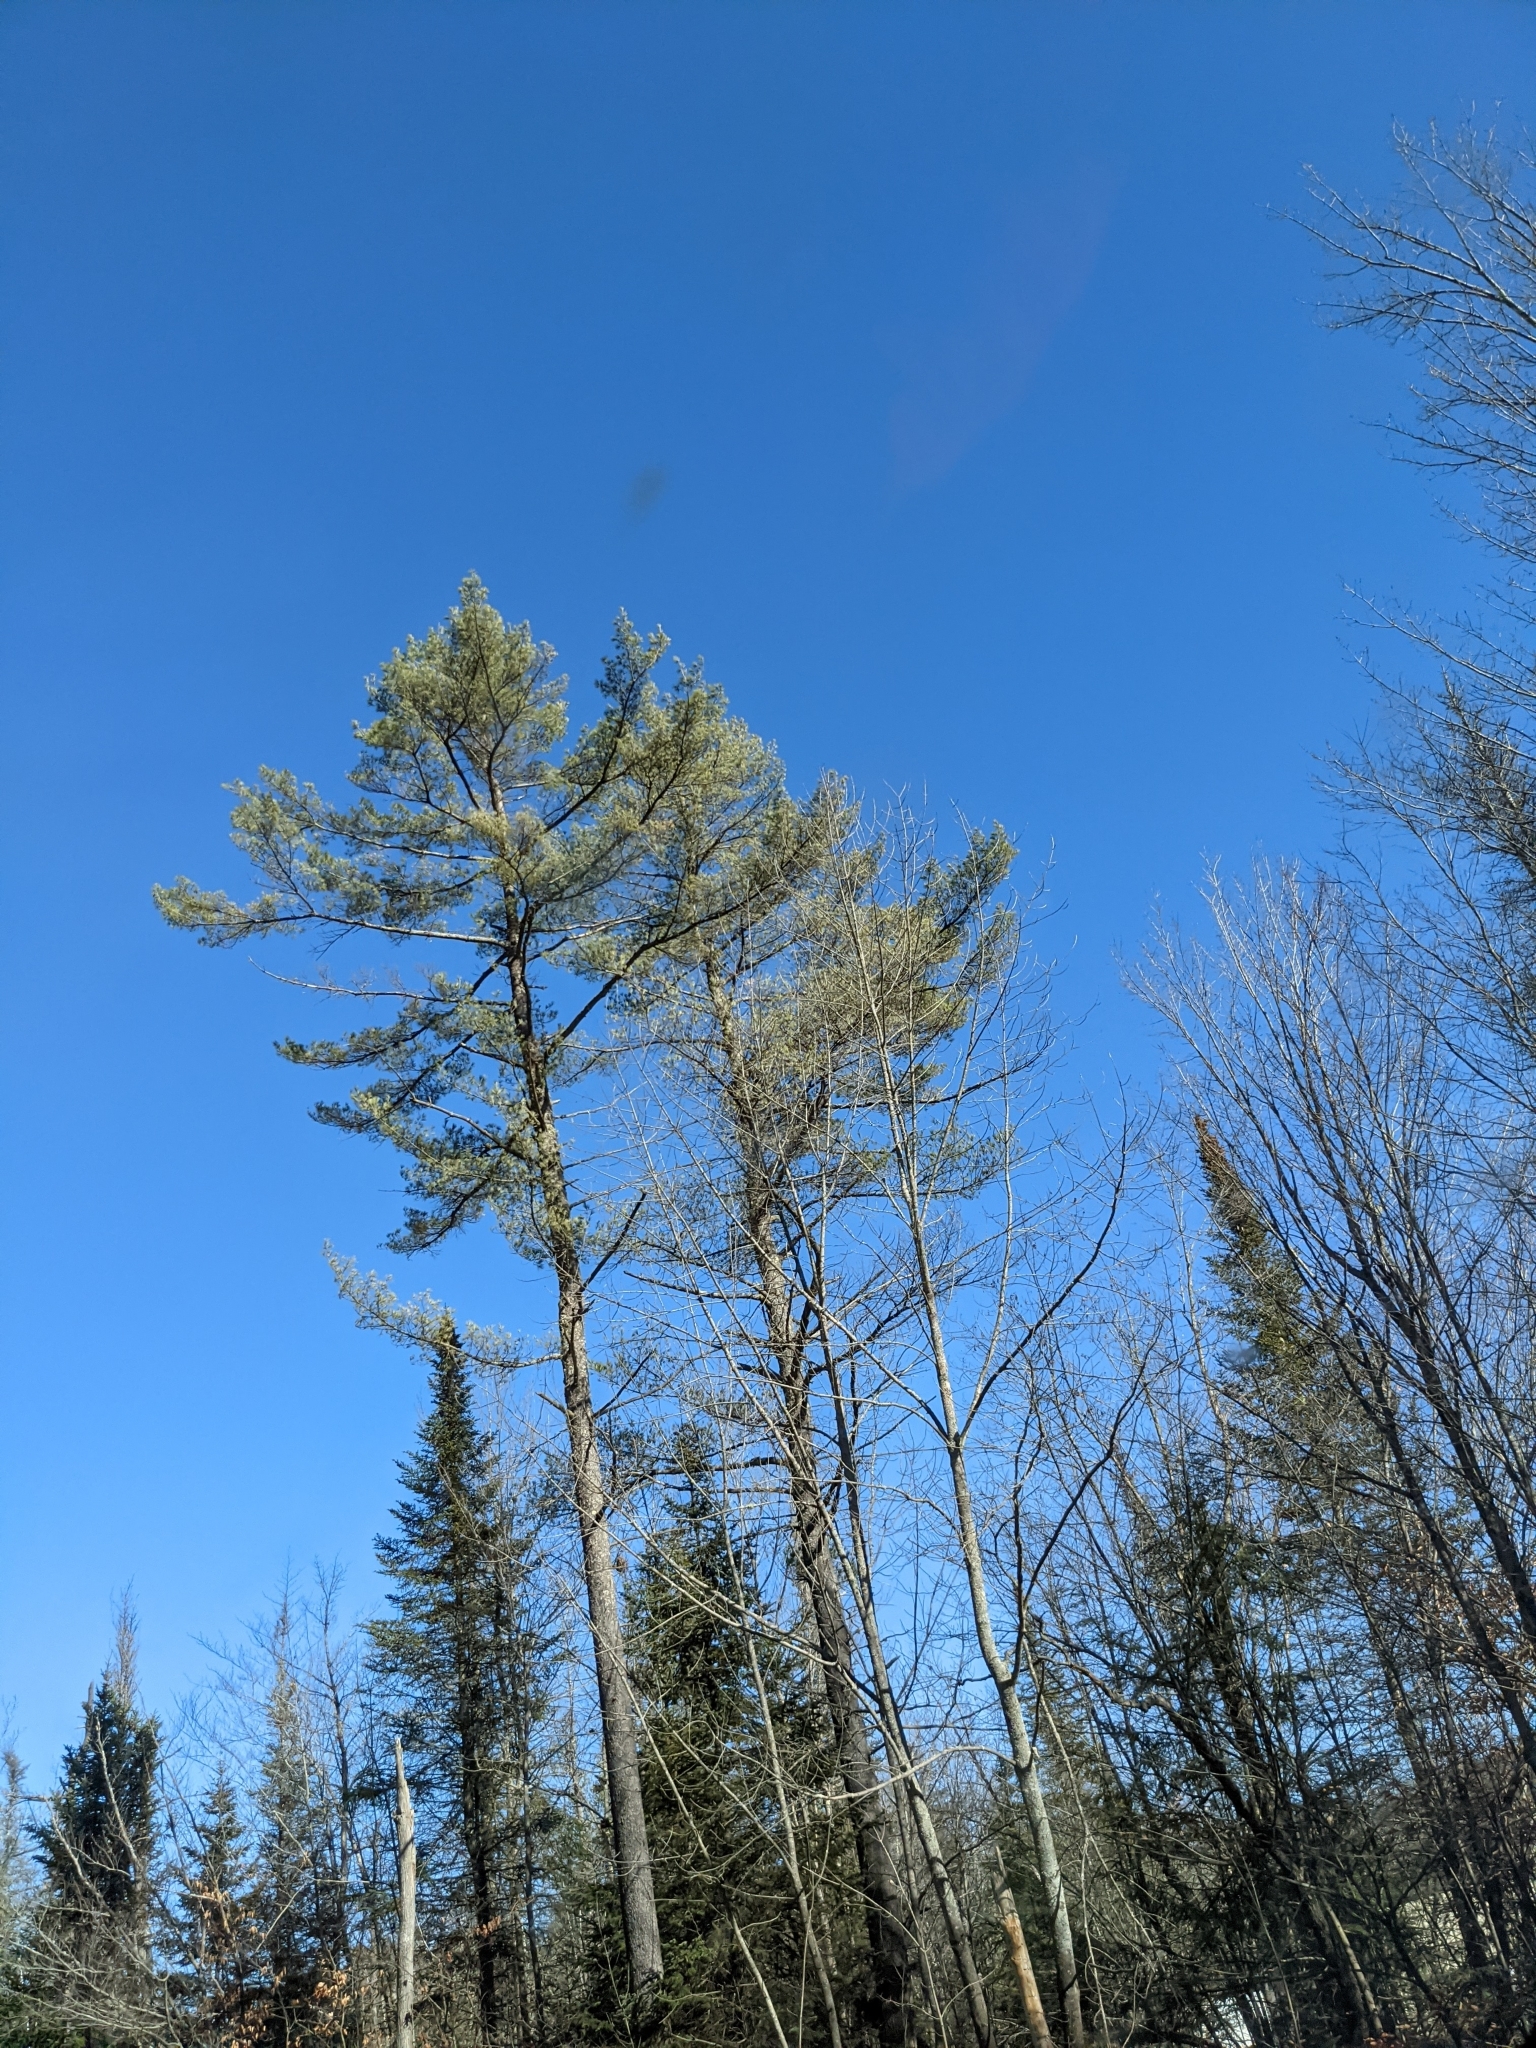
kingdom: Plantae
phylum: Tracheophyta
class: Pinopsida
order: Pinales
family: Pinaceae
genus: Pinus
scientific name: Pinus strobus
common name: Weymouth pine
